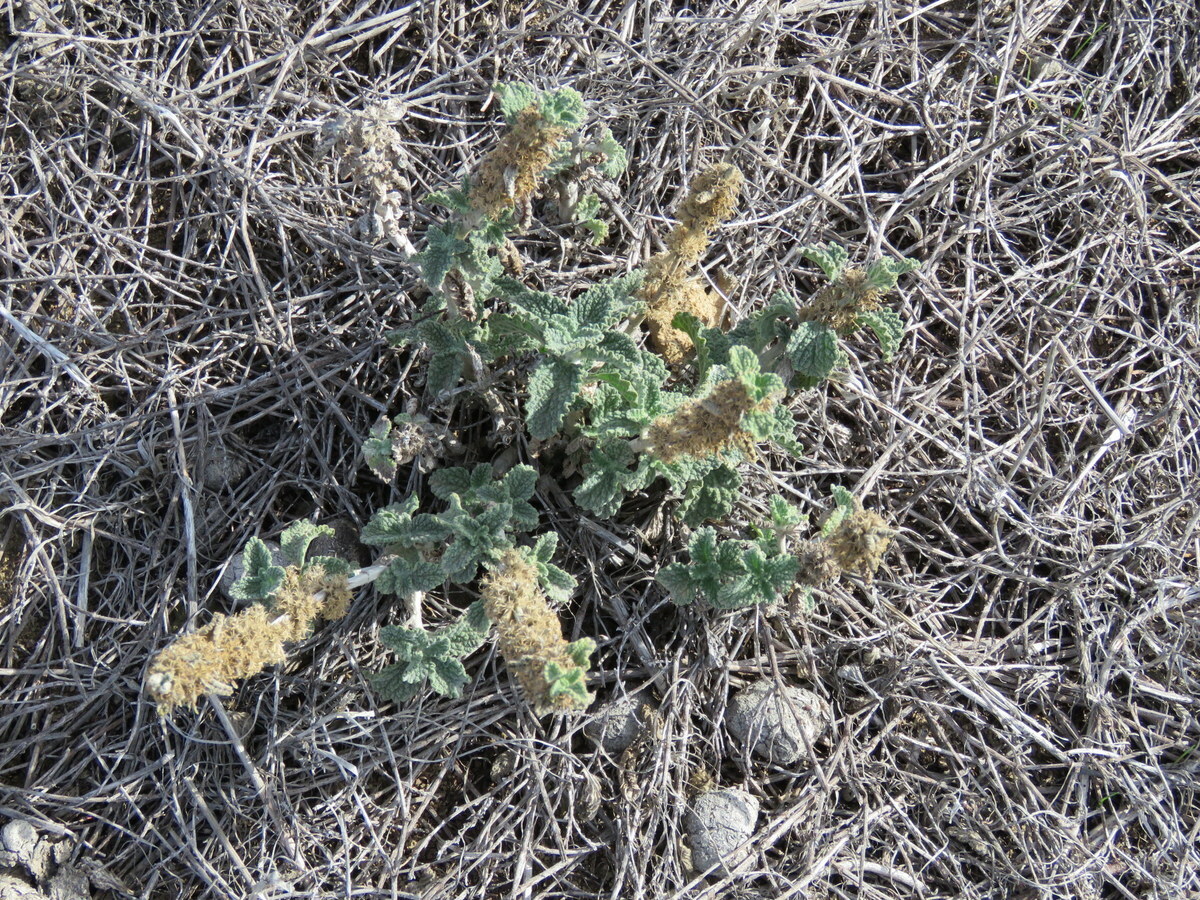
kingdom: Plantae
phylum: Tracheophyta
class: Magnoliopsida
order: Lamiales
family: Lamiaceae
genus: Marrubium
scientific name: Marrubium vulgare
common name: Horehound
